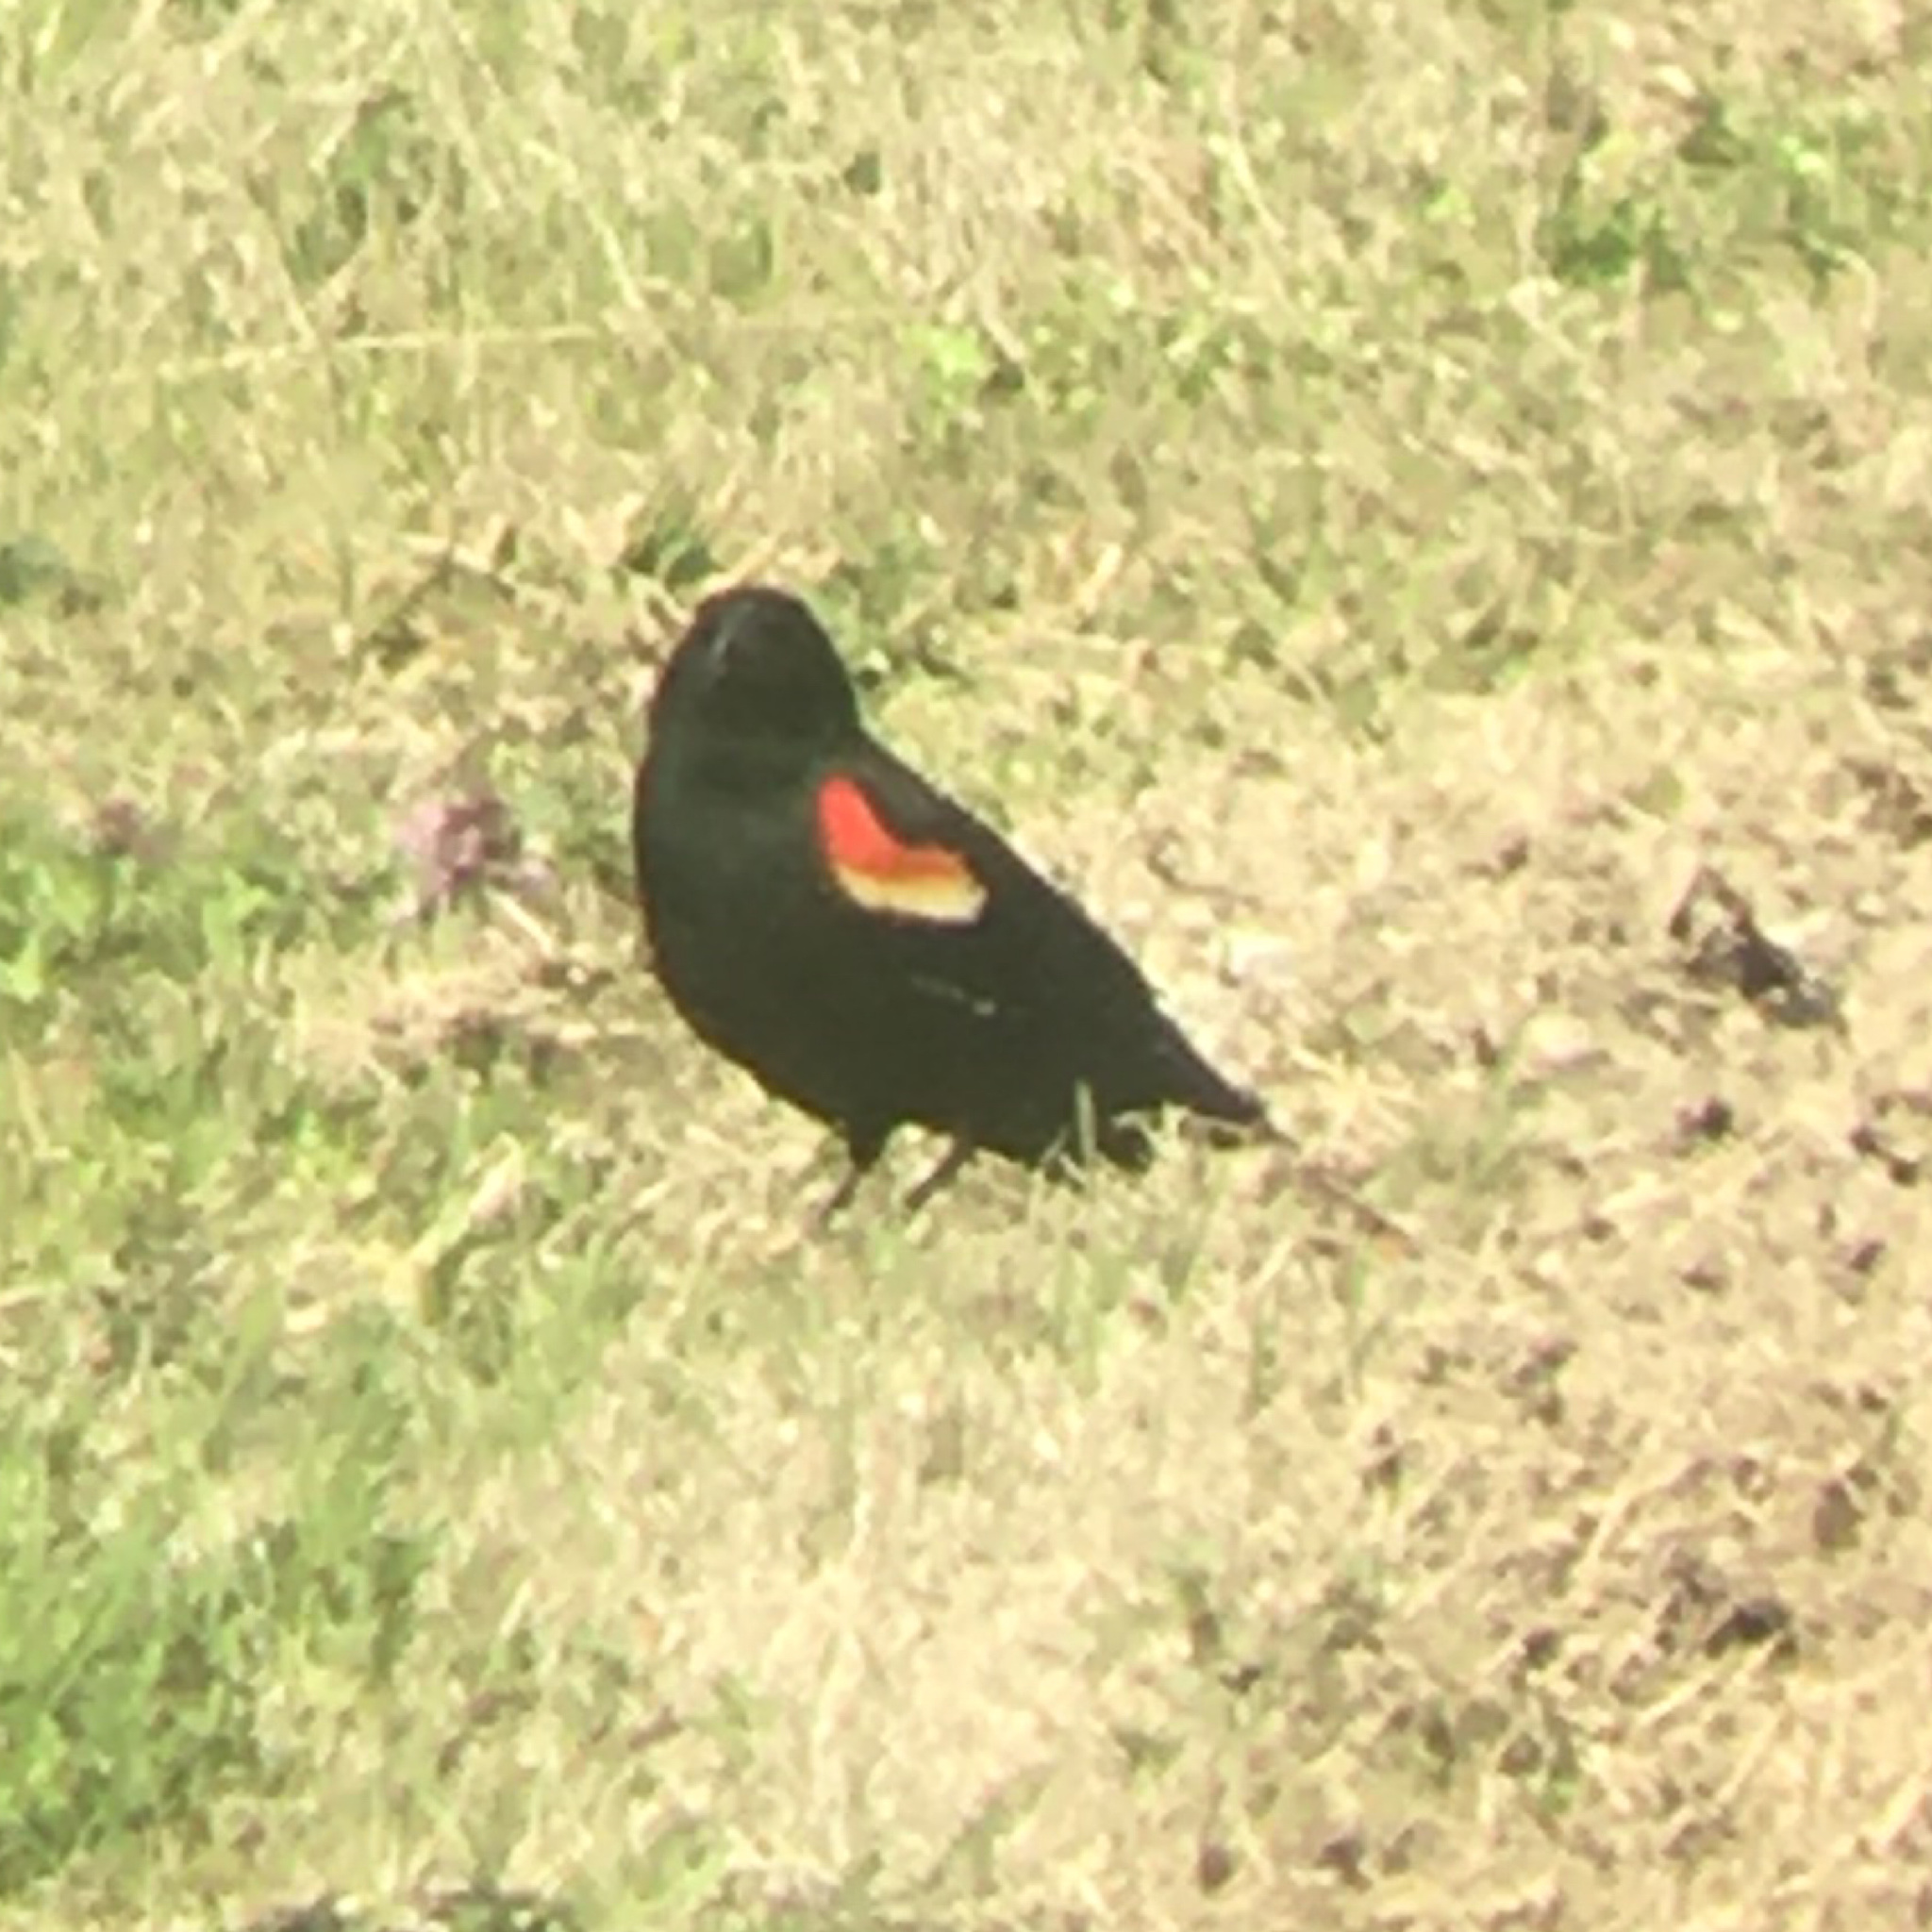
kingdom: Animalia
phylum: Chordata
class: Aves
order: Passeriformes
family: Icteridae
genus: Agelaius
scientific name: Agelaius phoeniceus
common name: Red-winged blackbird
